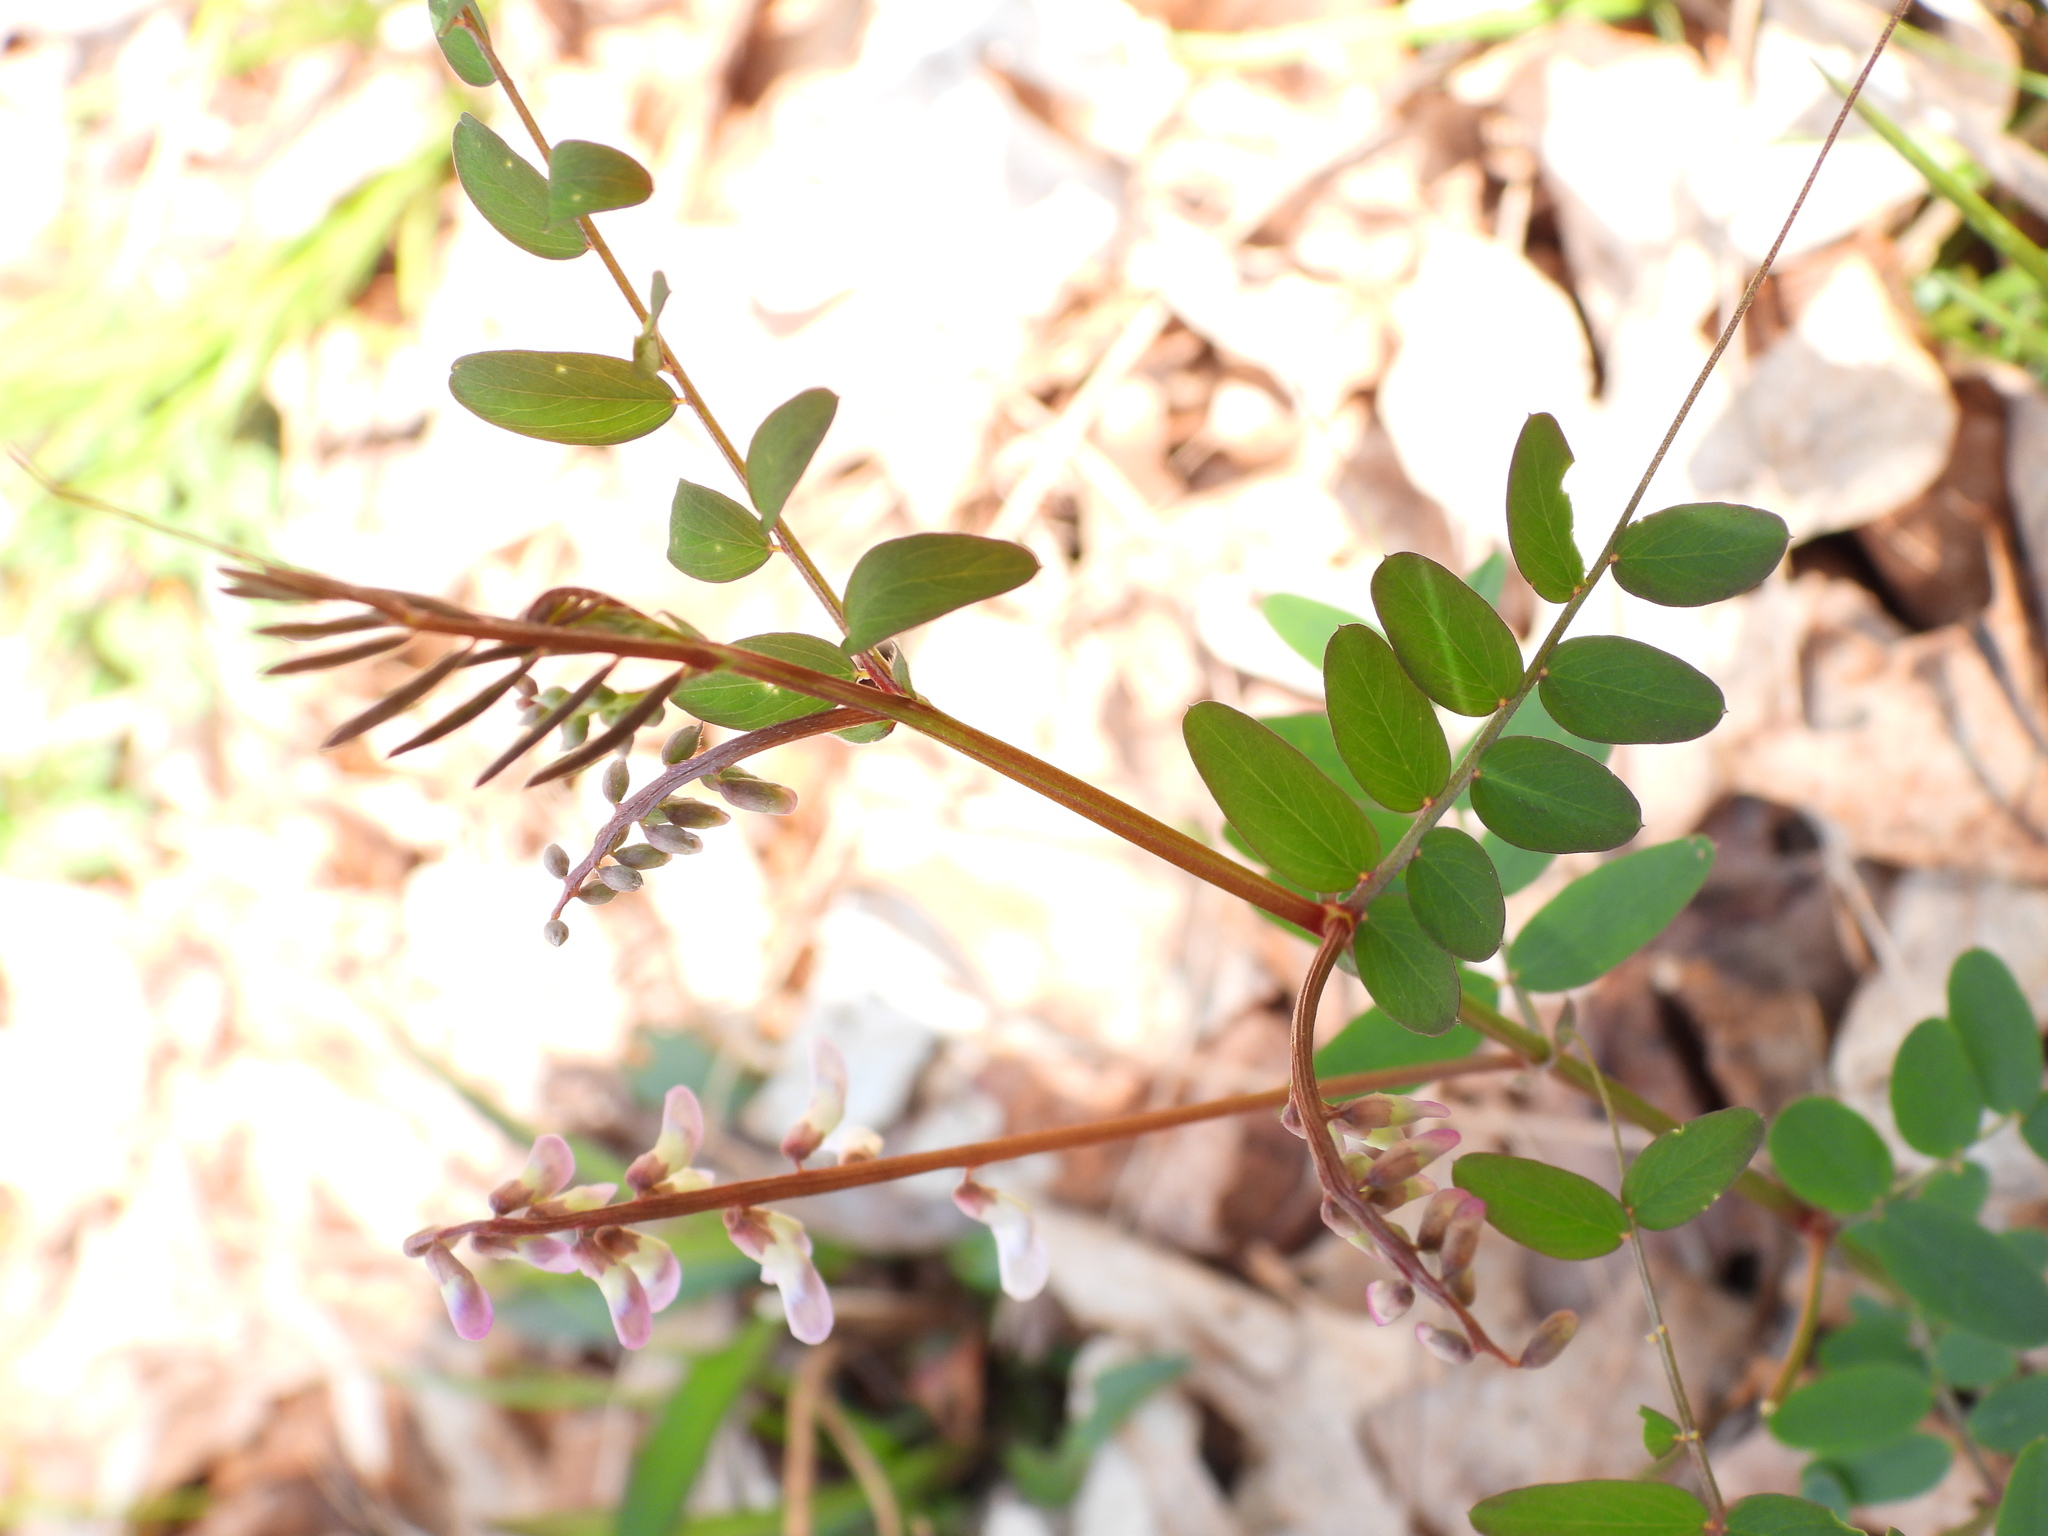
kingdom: Plantae
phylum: Tracheophyta
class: Magnoliopsida
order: Fabales
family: Fabaceae
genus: Vicia
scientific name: Vicia caroliniana
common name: Carolina vetch
